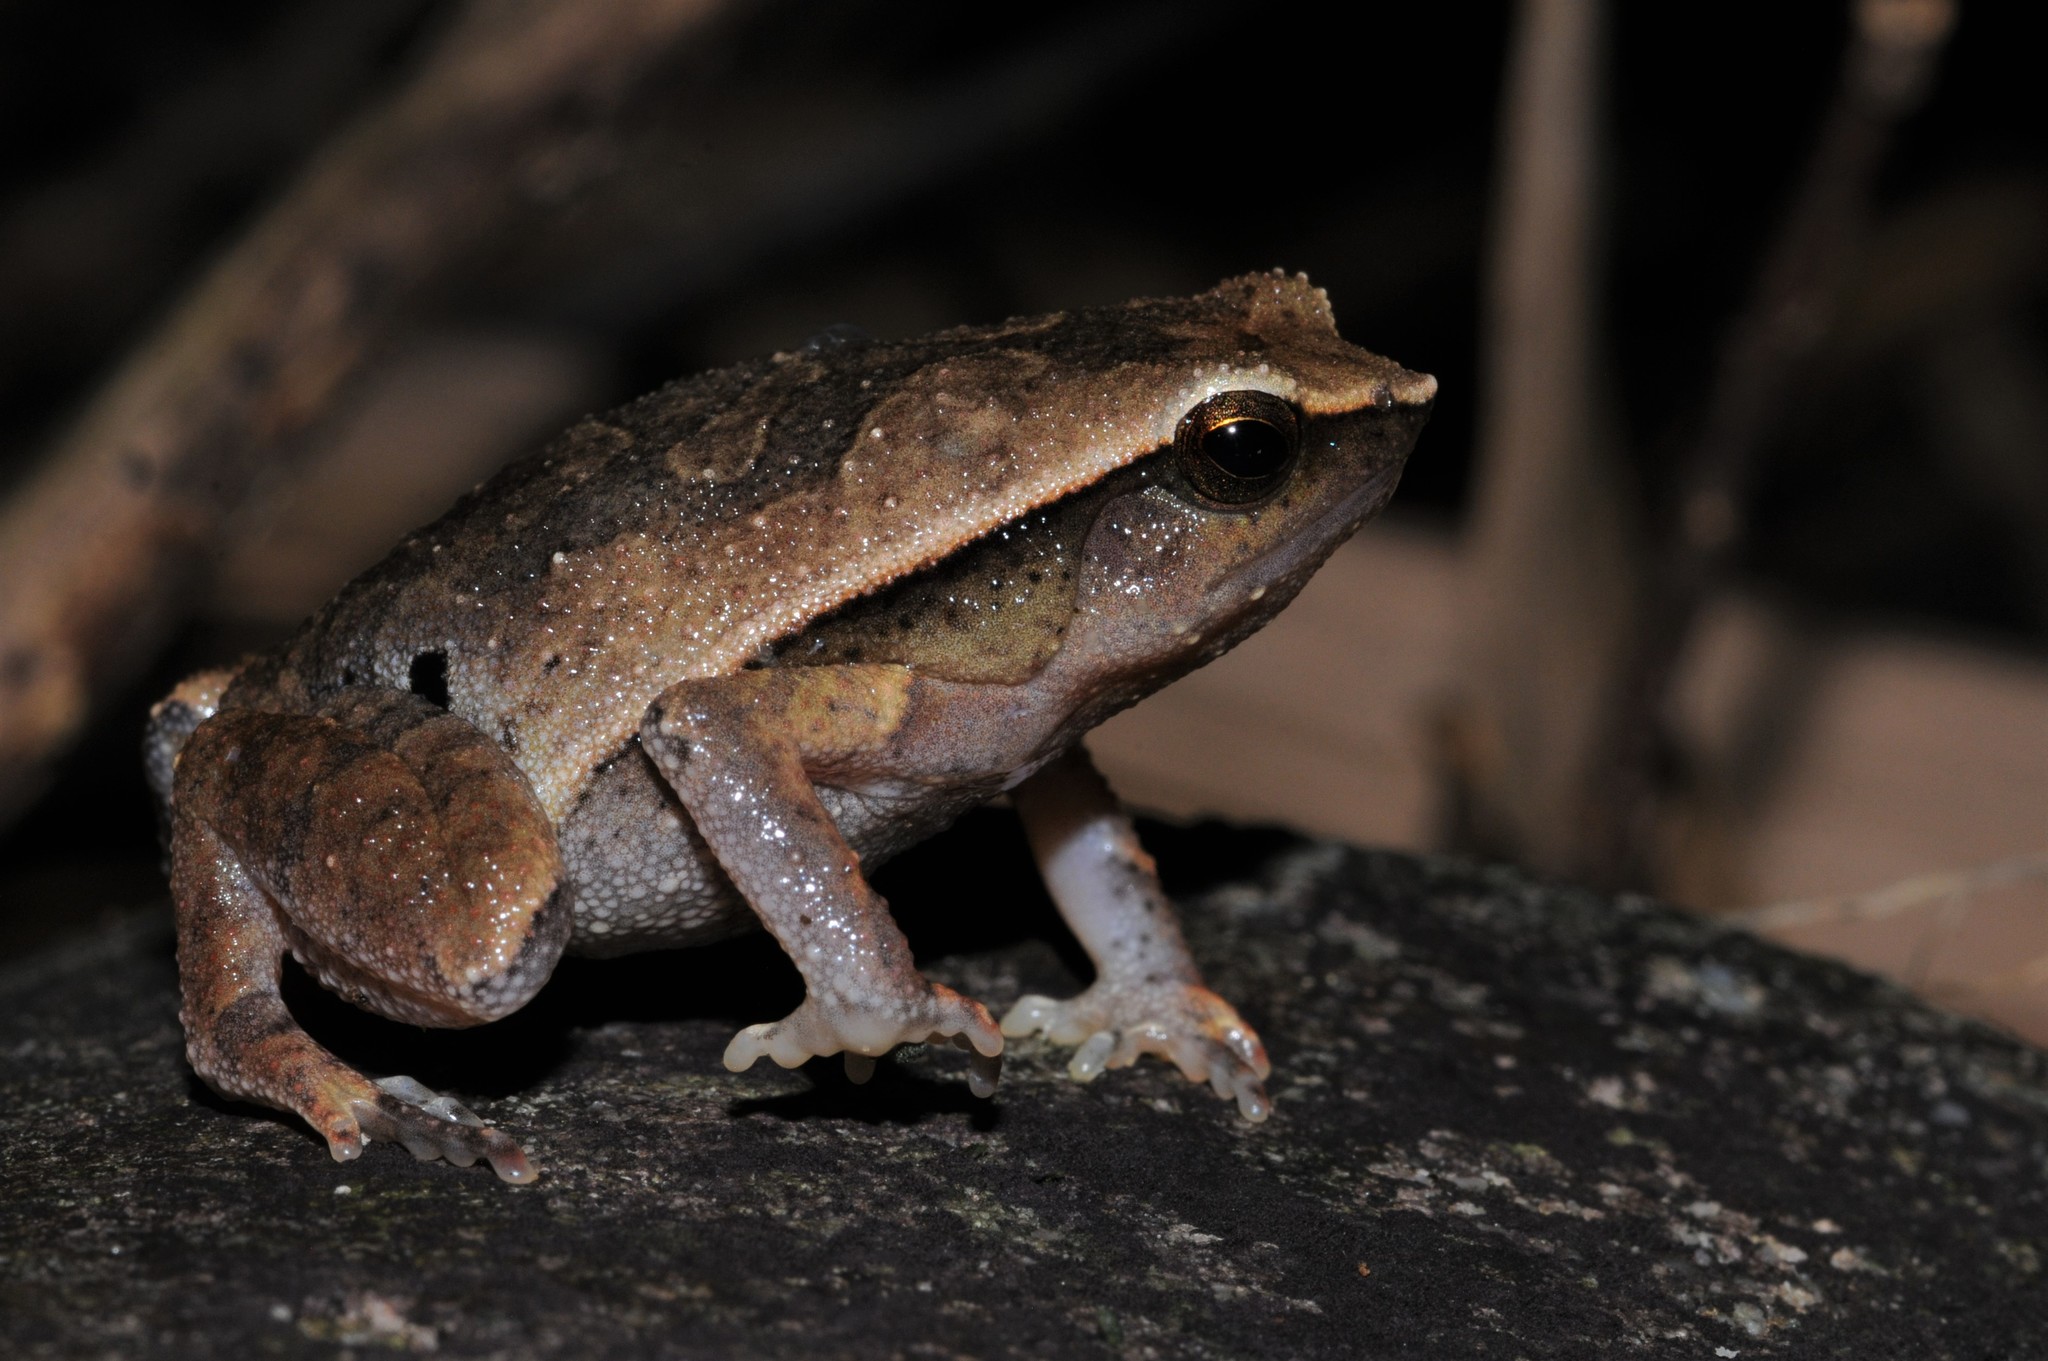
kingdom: Animalia
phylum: Chordata
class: Amphibia
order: Anura
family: Microhylidae
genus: Kalophrynus
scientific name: Kalophrynus kiewi
